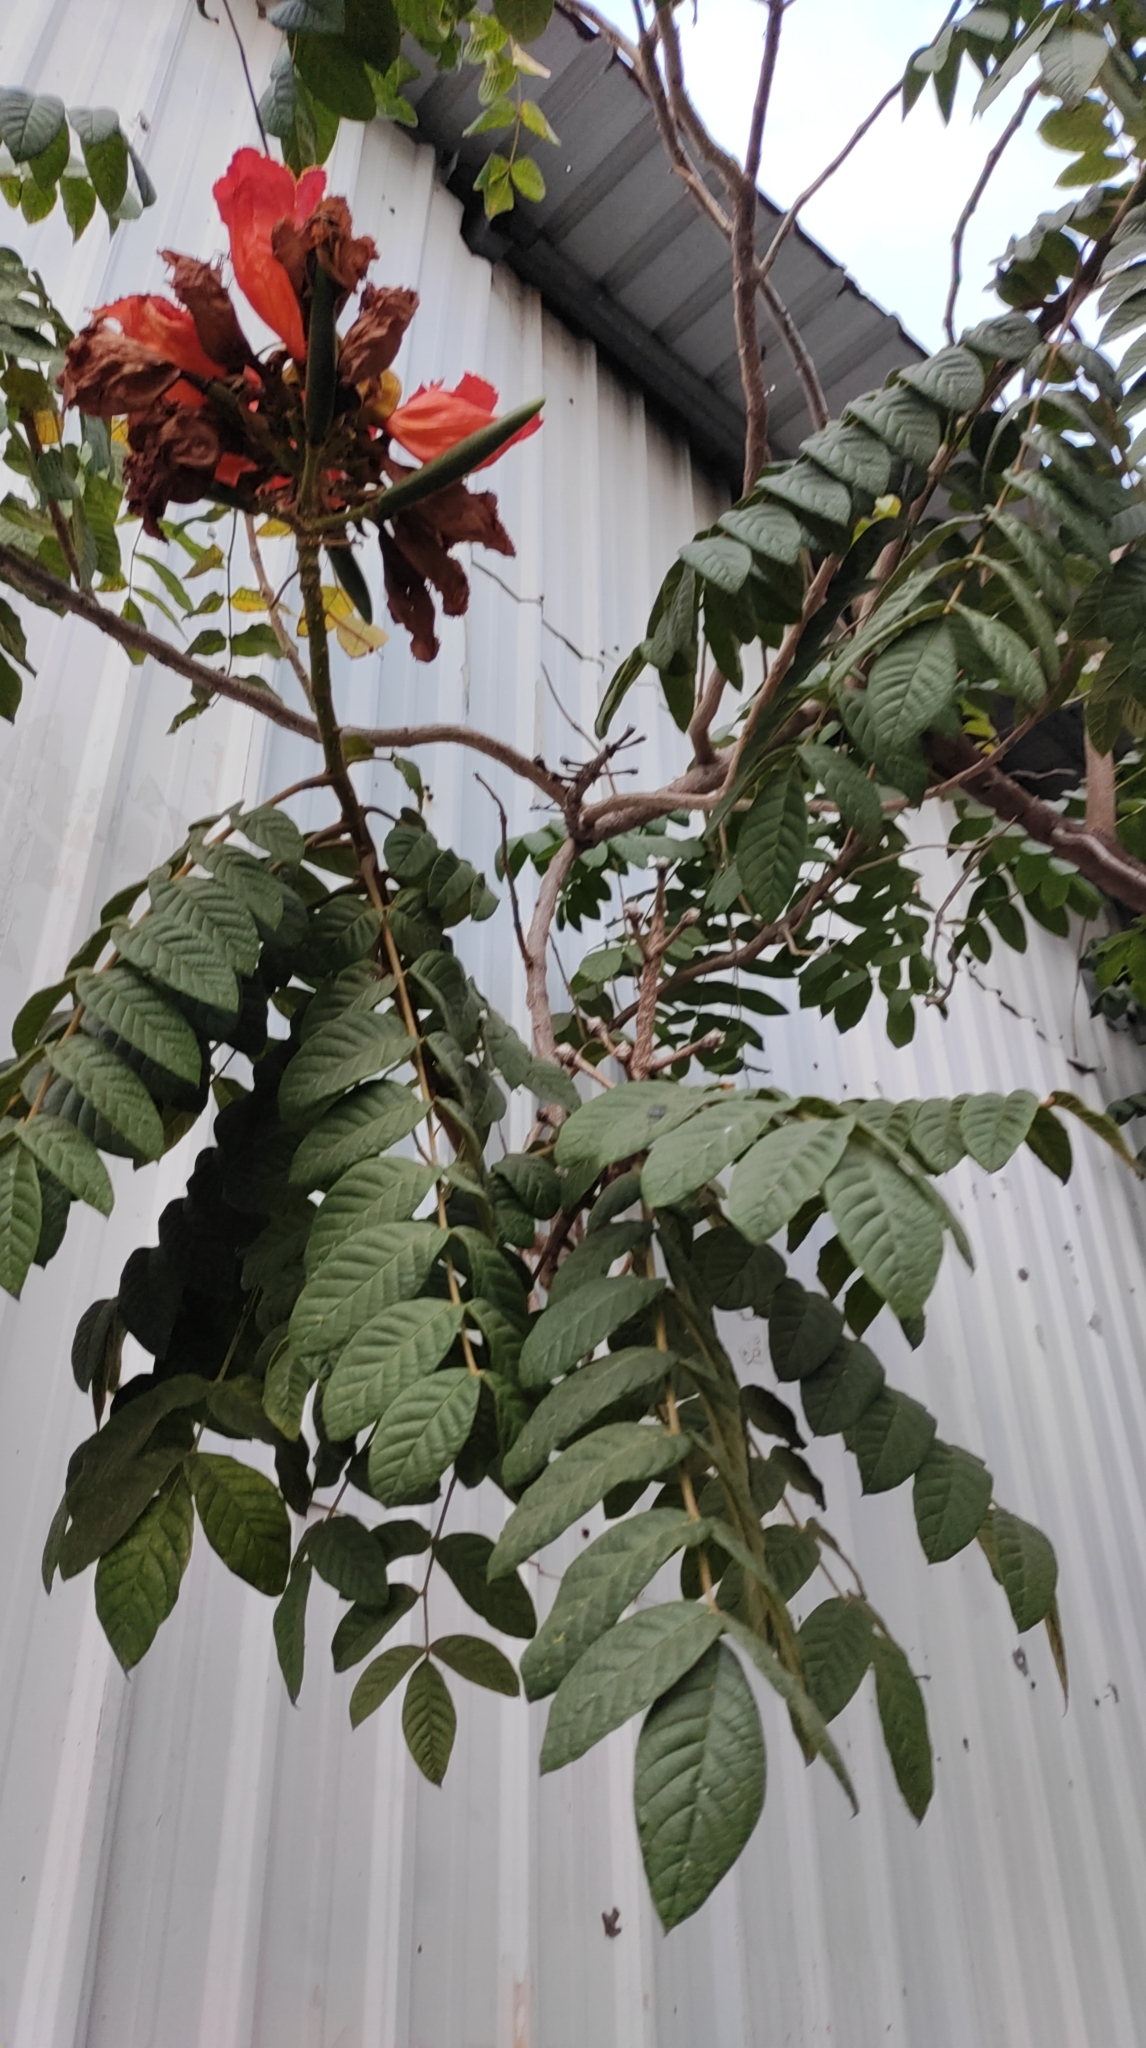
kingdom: Plantae
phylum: Tracheophyta
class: Magnoliopsida
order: Lamiales
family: Bignoniaceae
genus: Spathodea
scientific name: Spathodea campanulata
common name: African tuliptree
